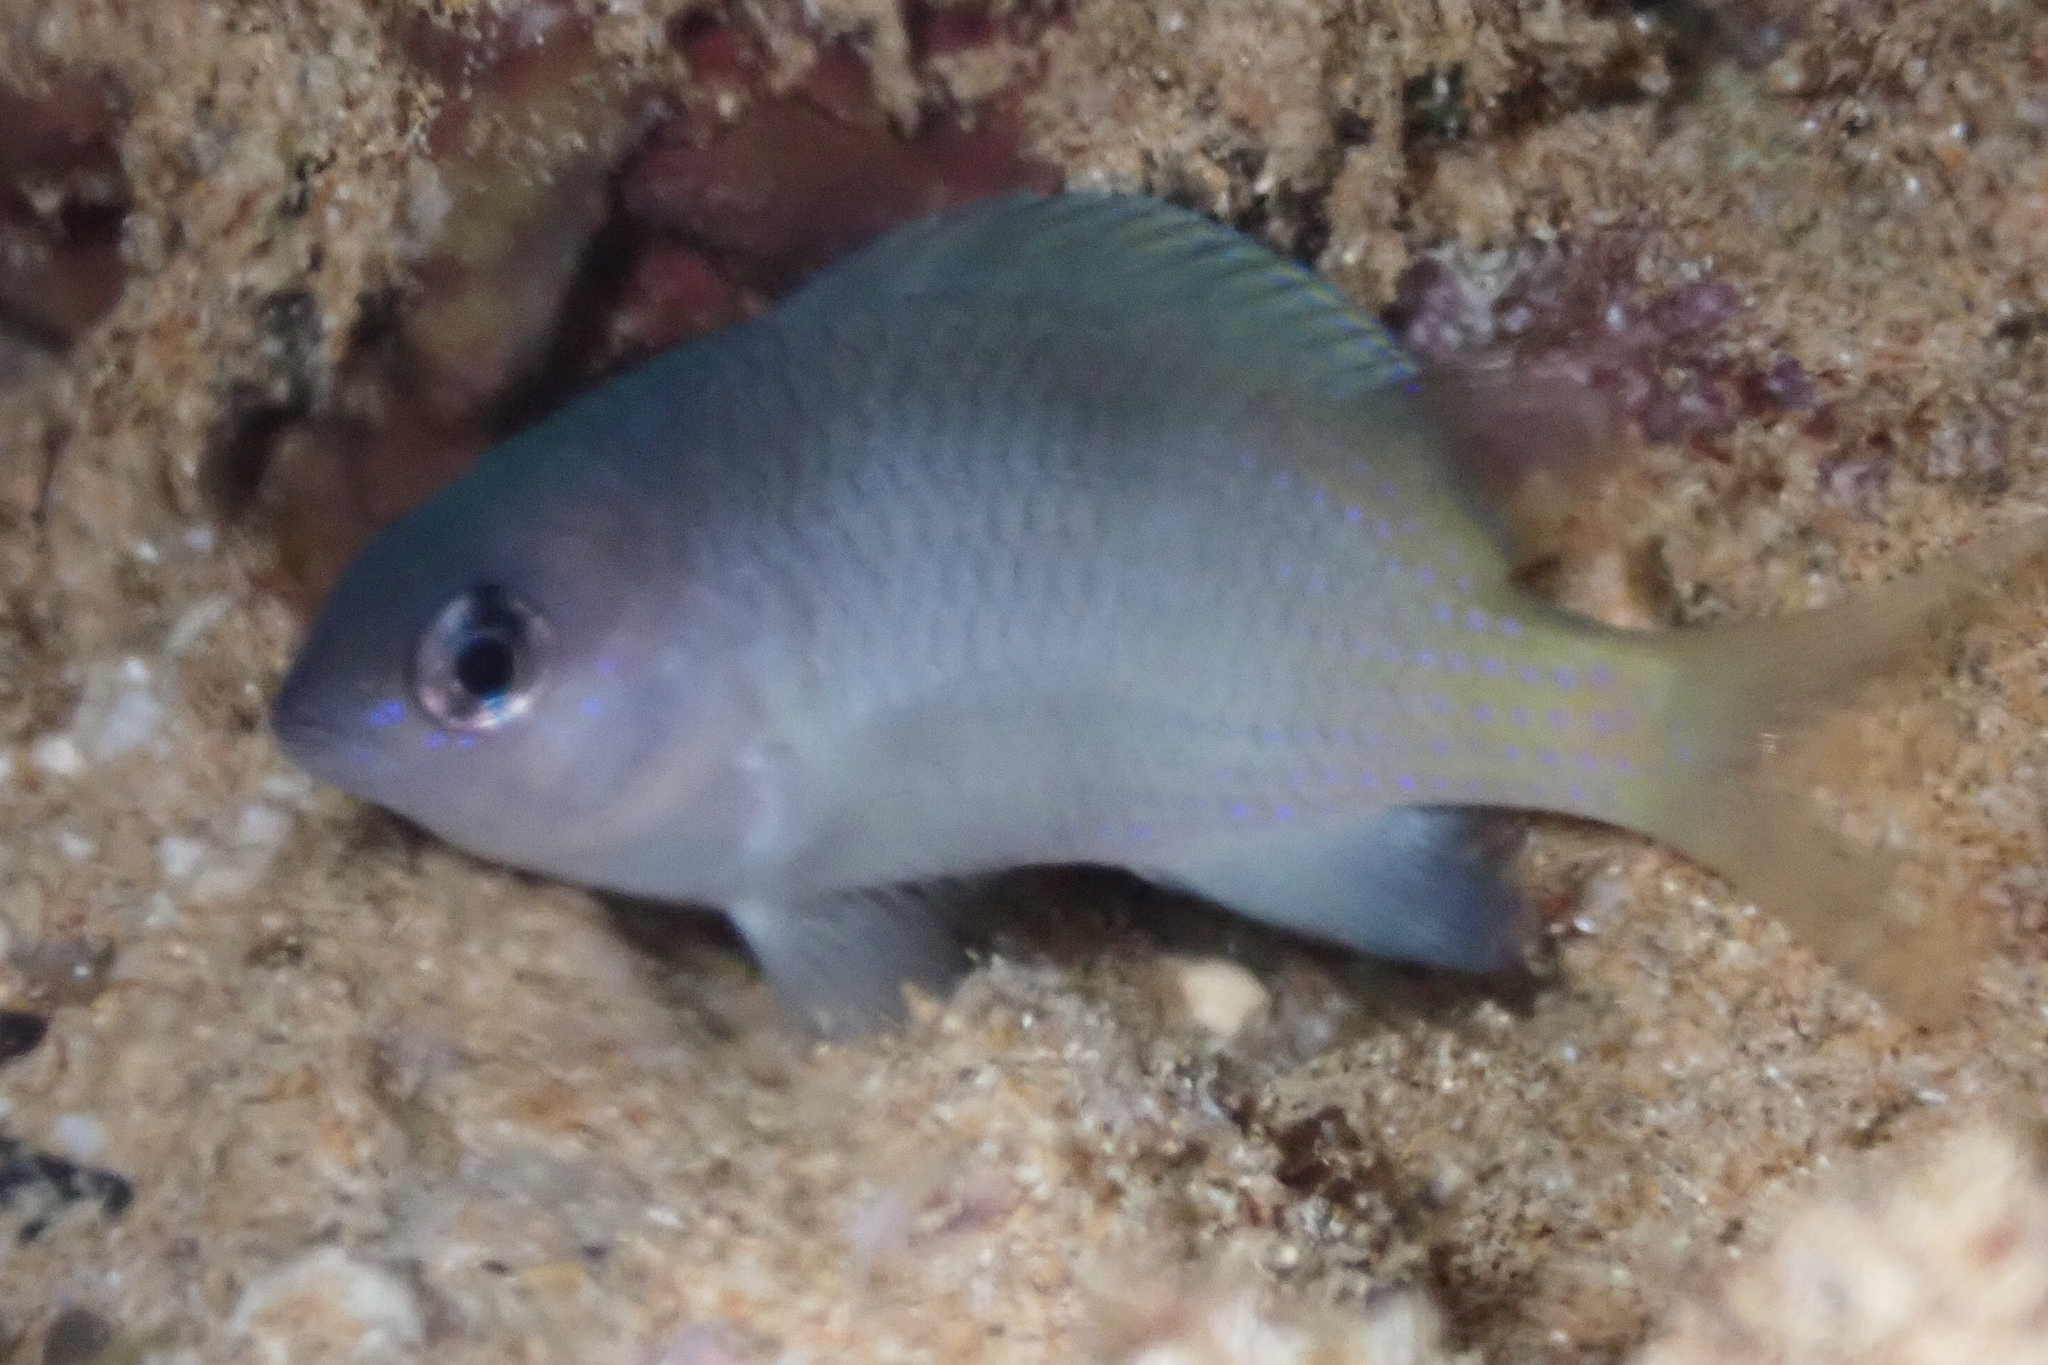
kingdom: Animalia
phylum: Chordata
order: Perciformes
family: Pomacentridae
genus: Plectroglyphidodon
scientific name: Plectroglyphidodon imparipennis
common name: Brighteye damsel
